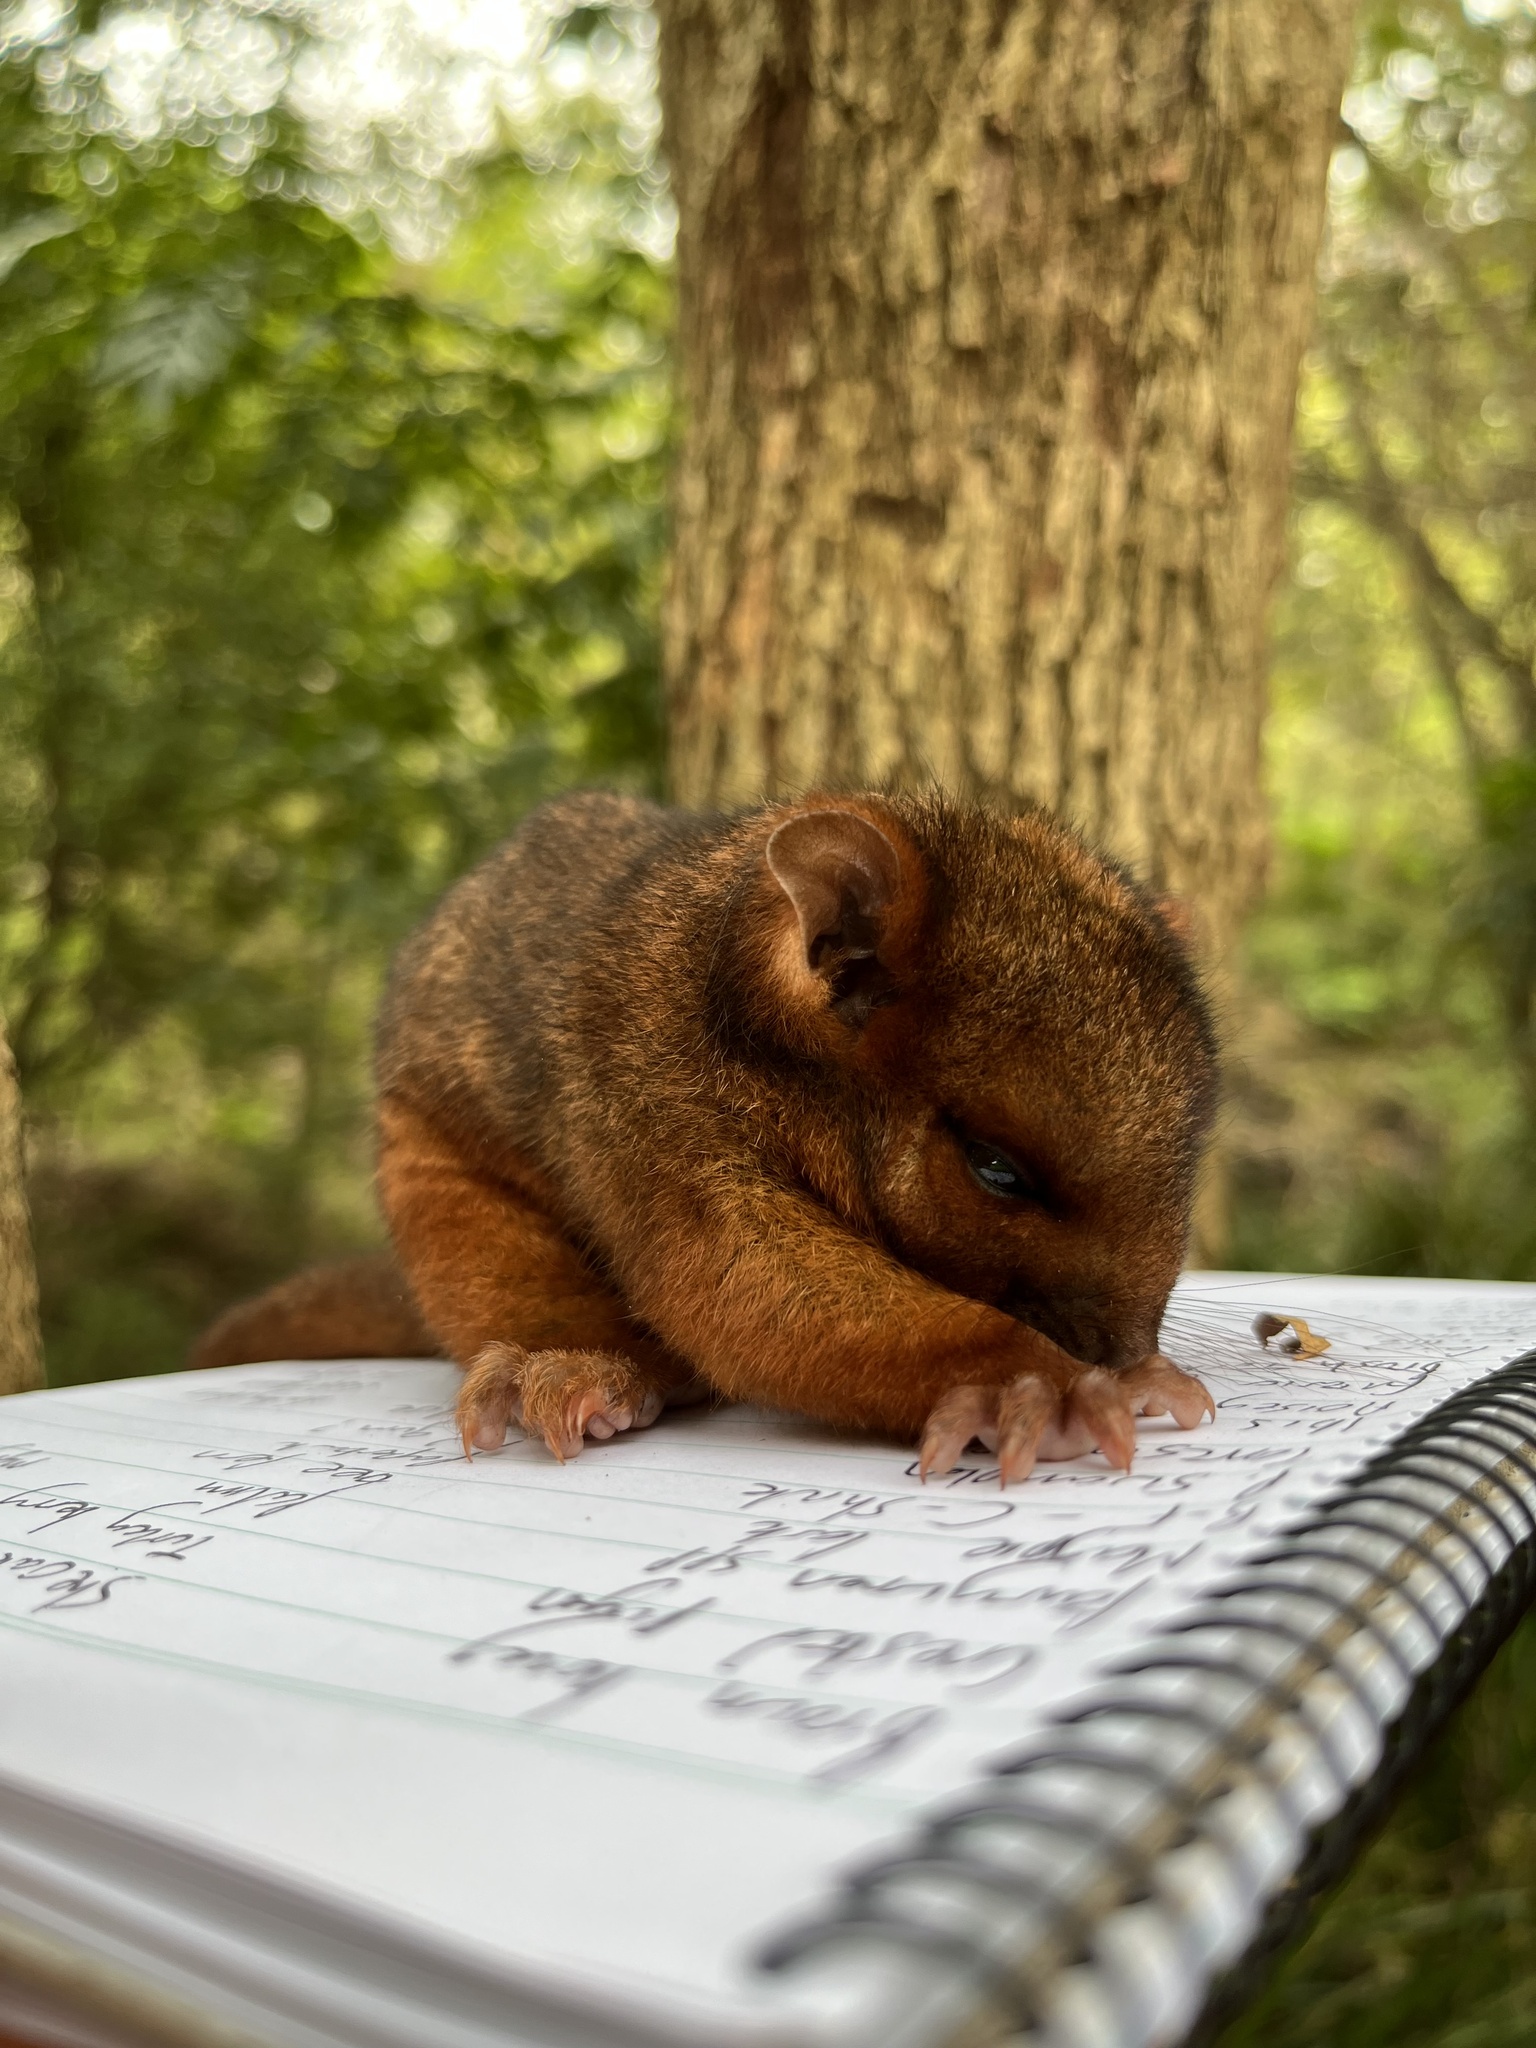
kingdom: Animalia
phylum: Chordata
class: Mammalia
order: Diprotodontia
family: Pseudocheiridae
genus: Pseudocheirus
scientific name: Pseudocheirus peregrinus
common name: Common ringtail possum
